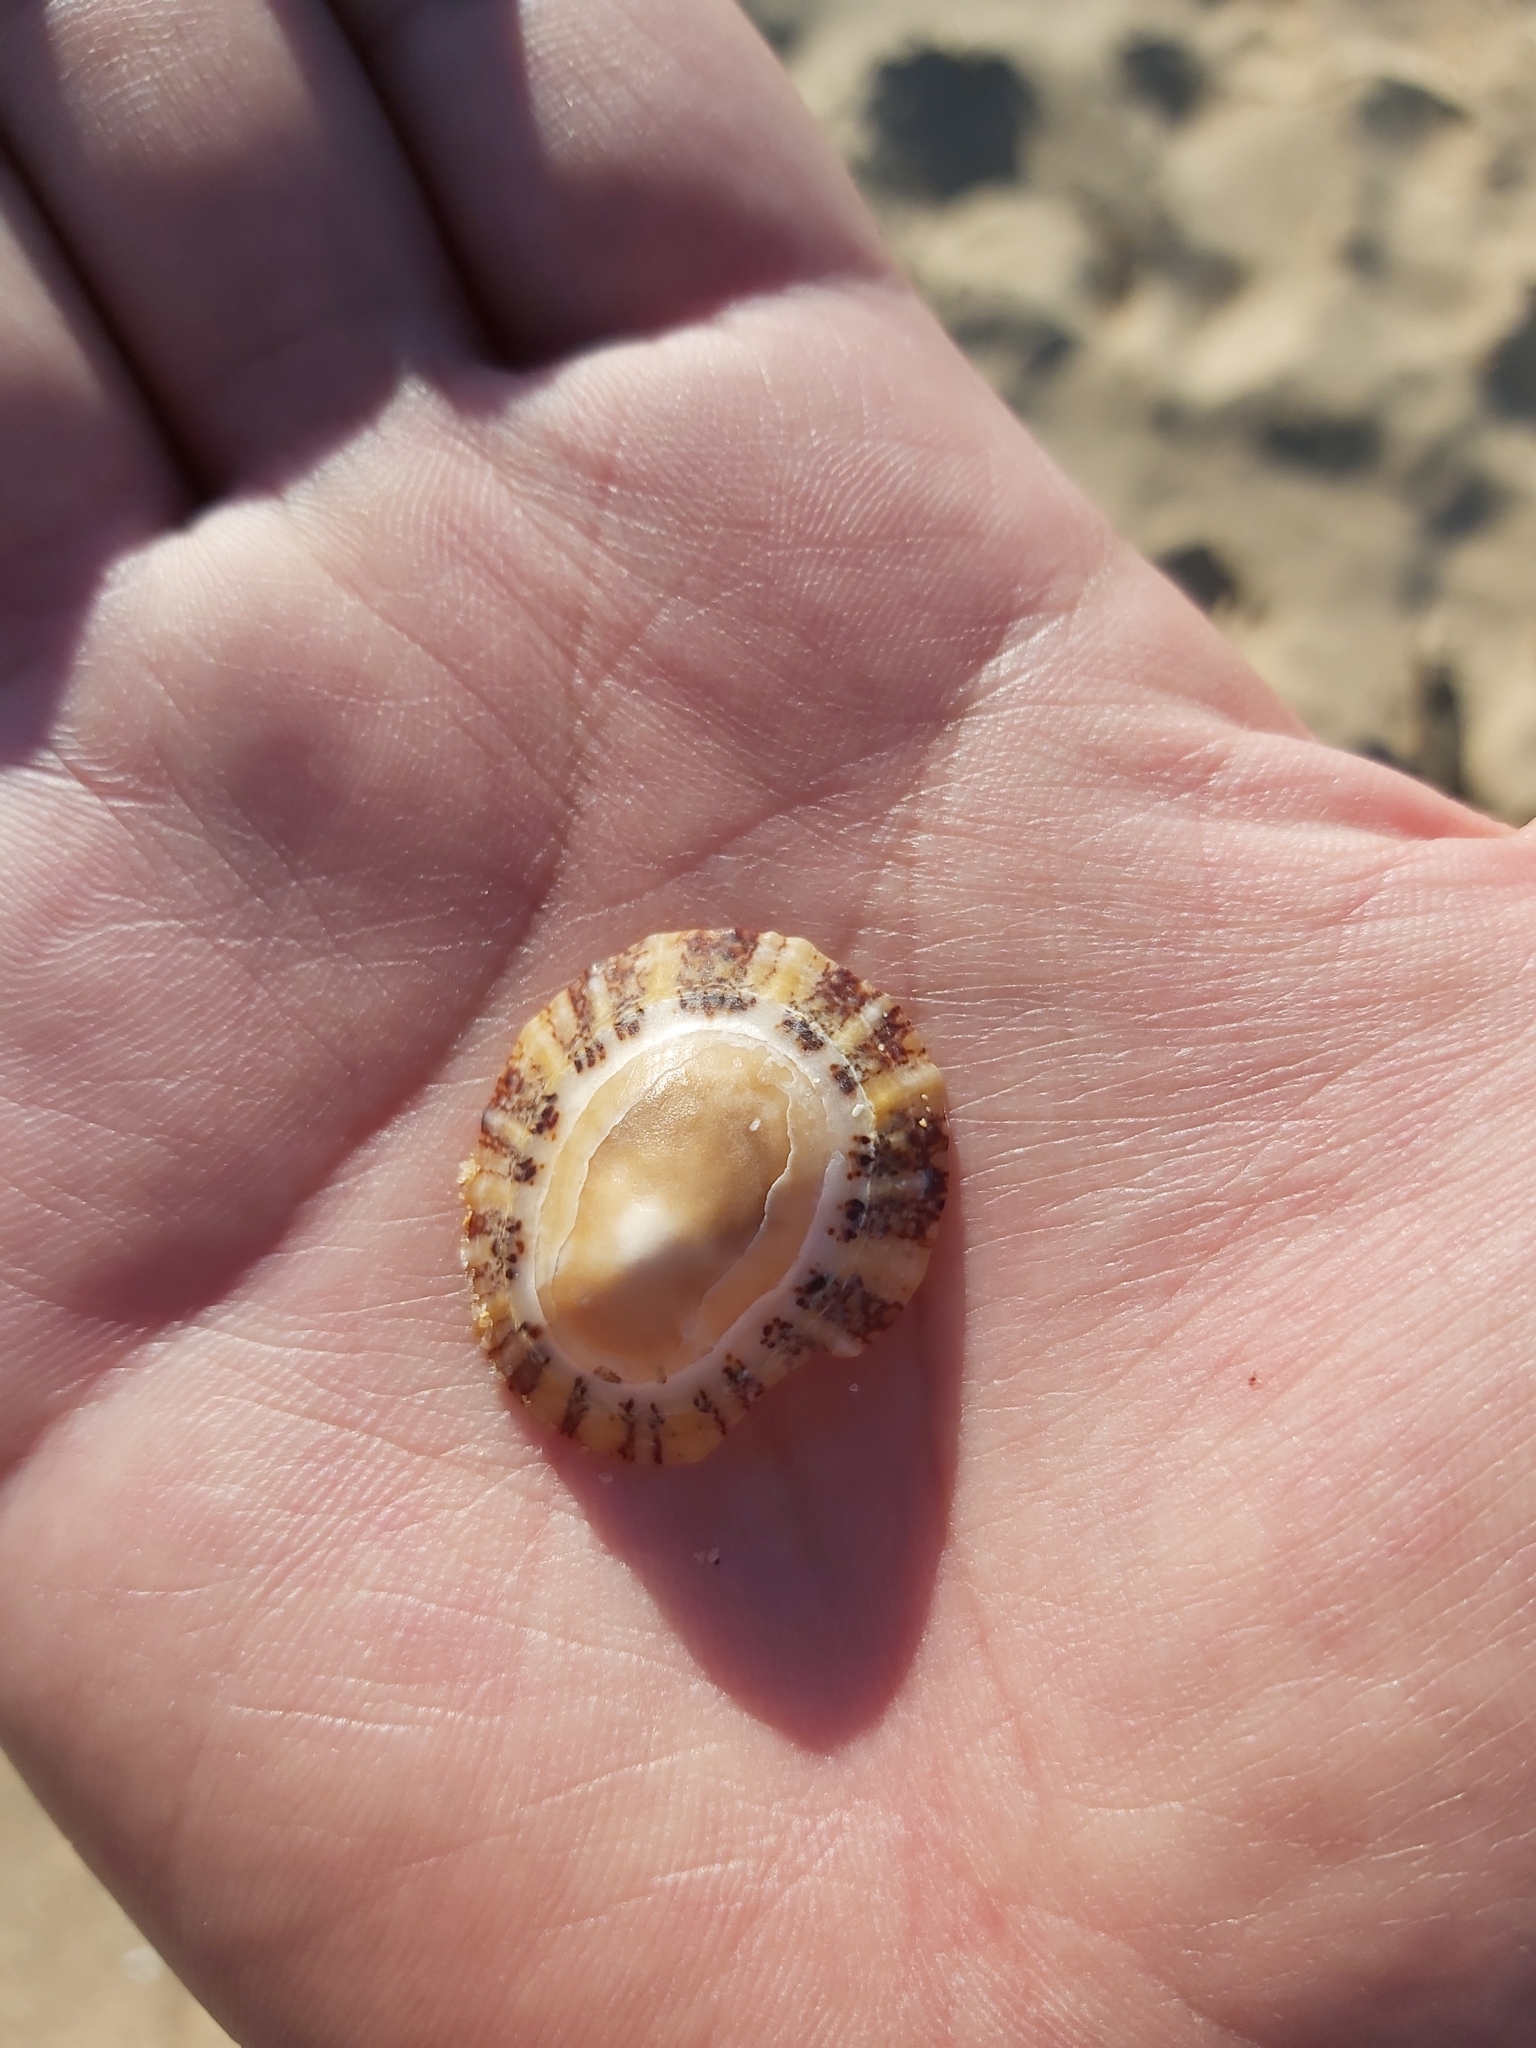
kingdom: Animalia
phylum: Mollusca
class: Gastropoda
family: Nacellidae
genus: Cellana
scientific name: Cellana tramoserica
